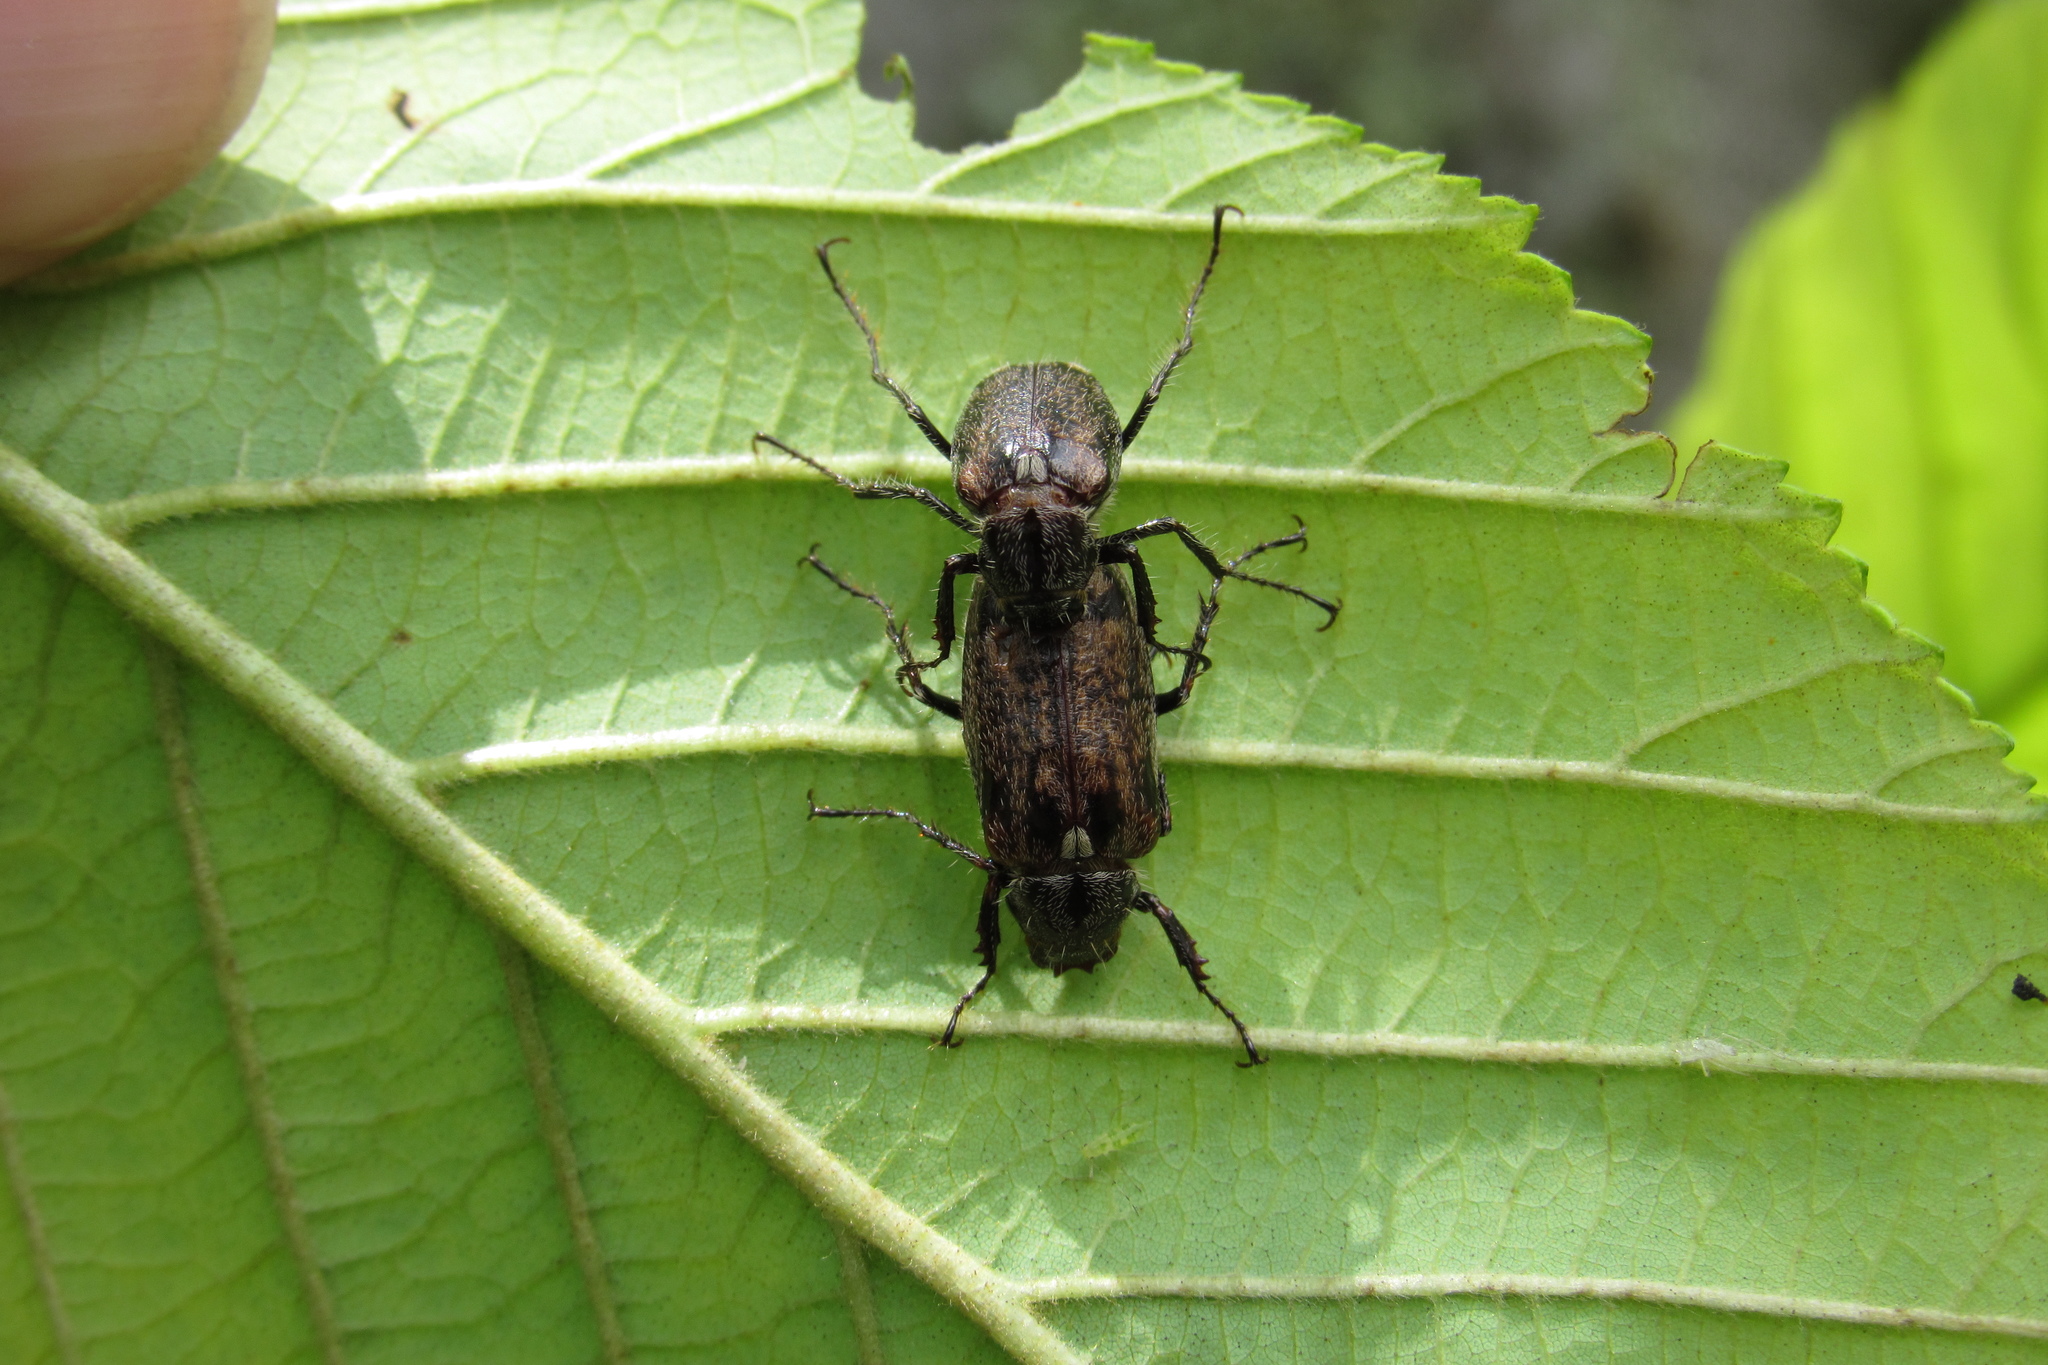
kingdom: Animalia
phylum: Arthropoda
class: Insecta
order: Coleoptera
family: Scarabaeidae
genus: Manopus
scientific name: Manopus biguttatus
